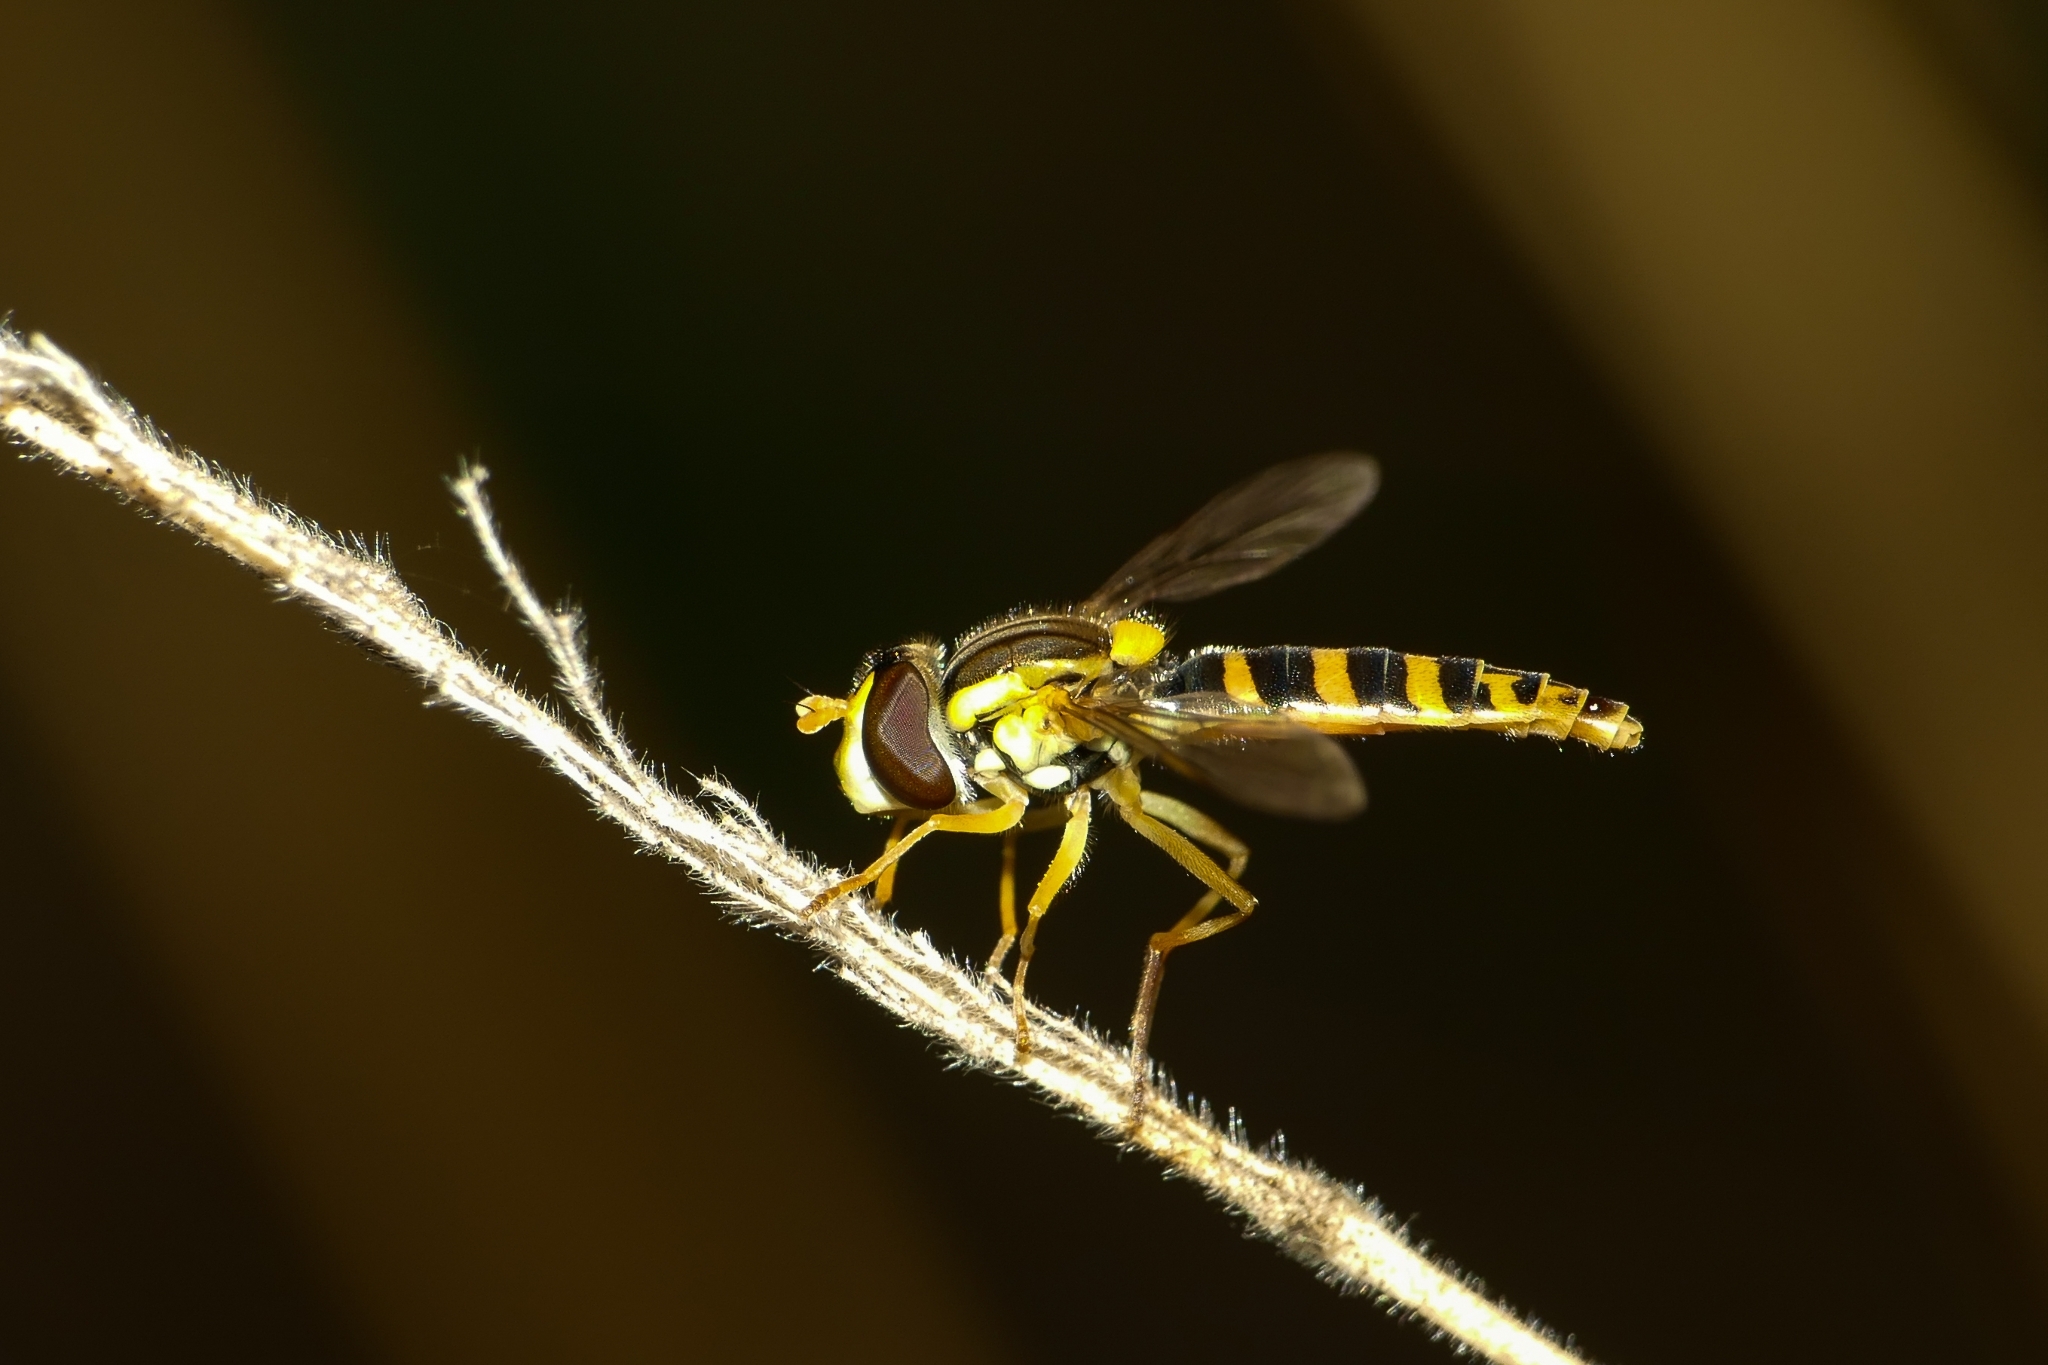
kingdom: Animalia
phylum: Arthropoda
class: Insecta
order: Diptera
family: Syrphidae
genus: Sphaerophoria
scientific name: Sphaerophoria
